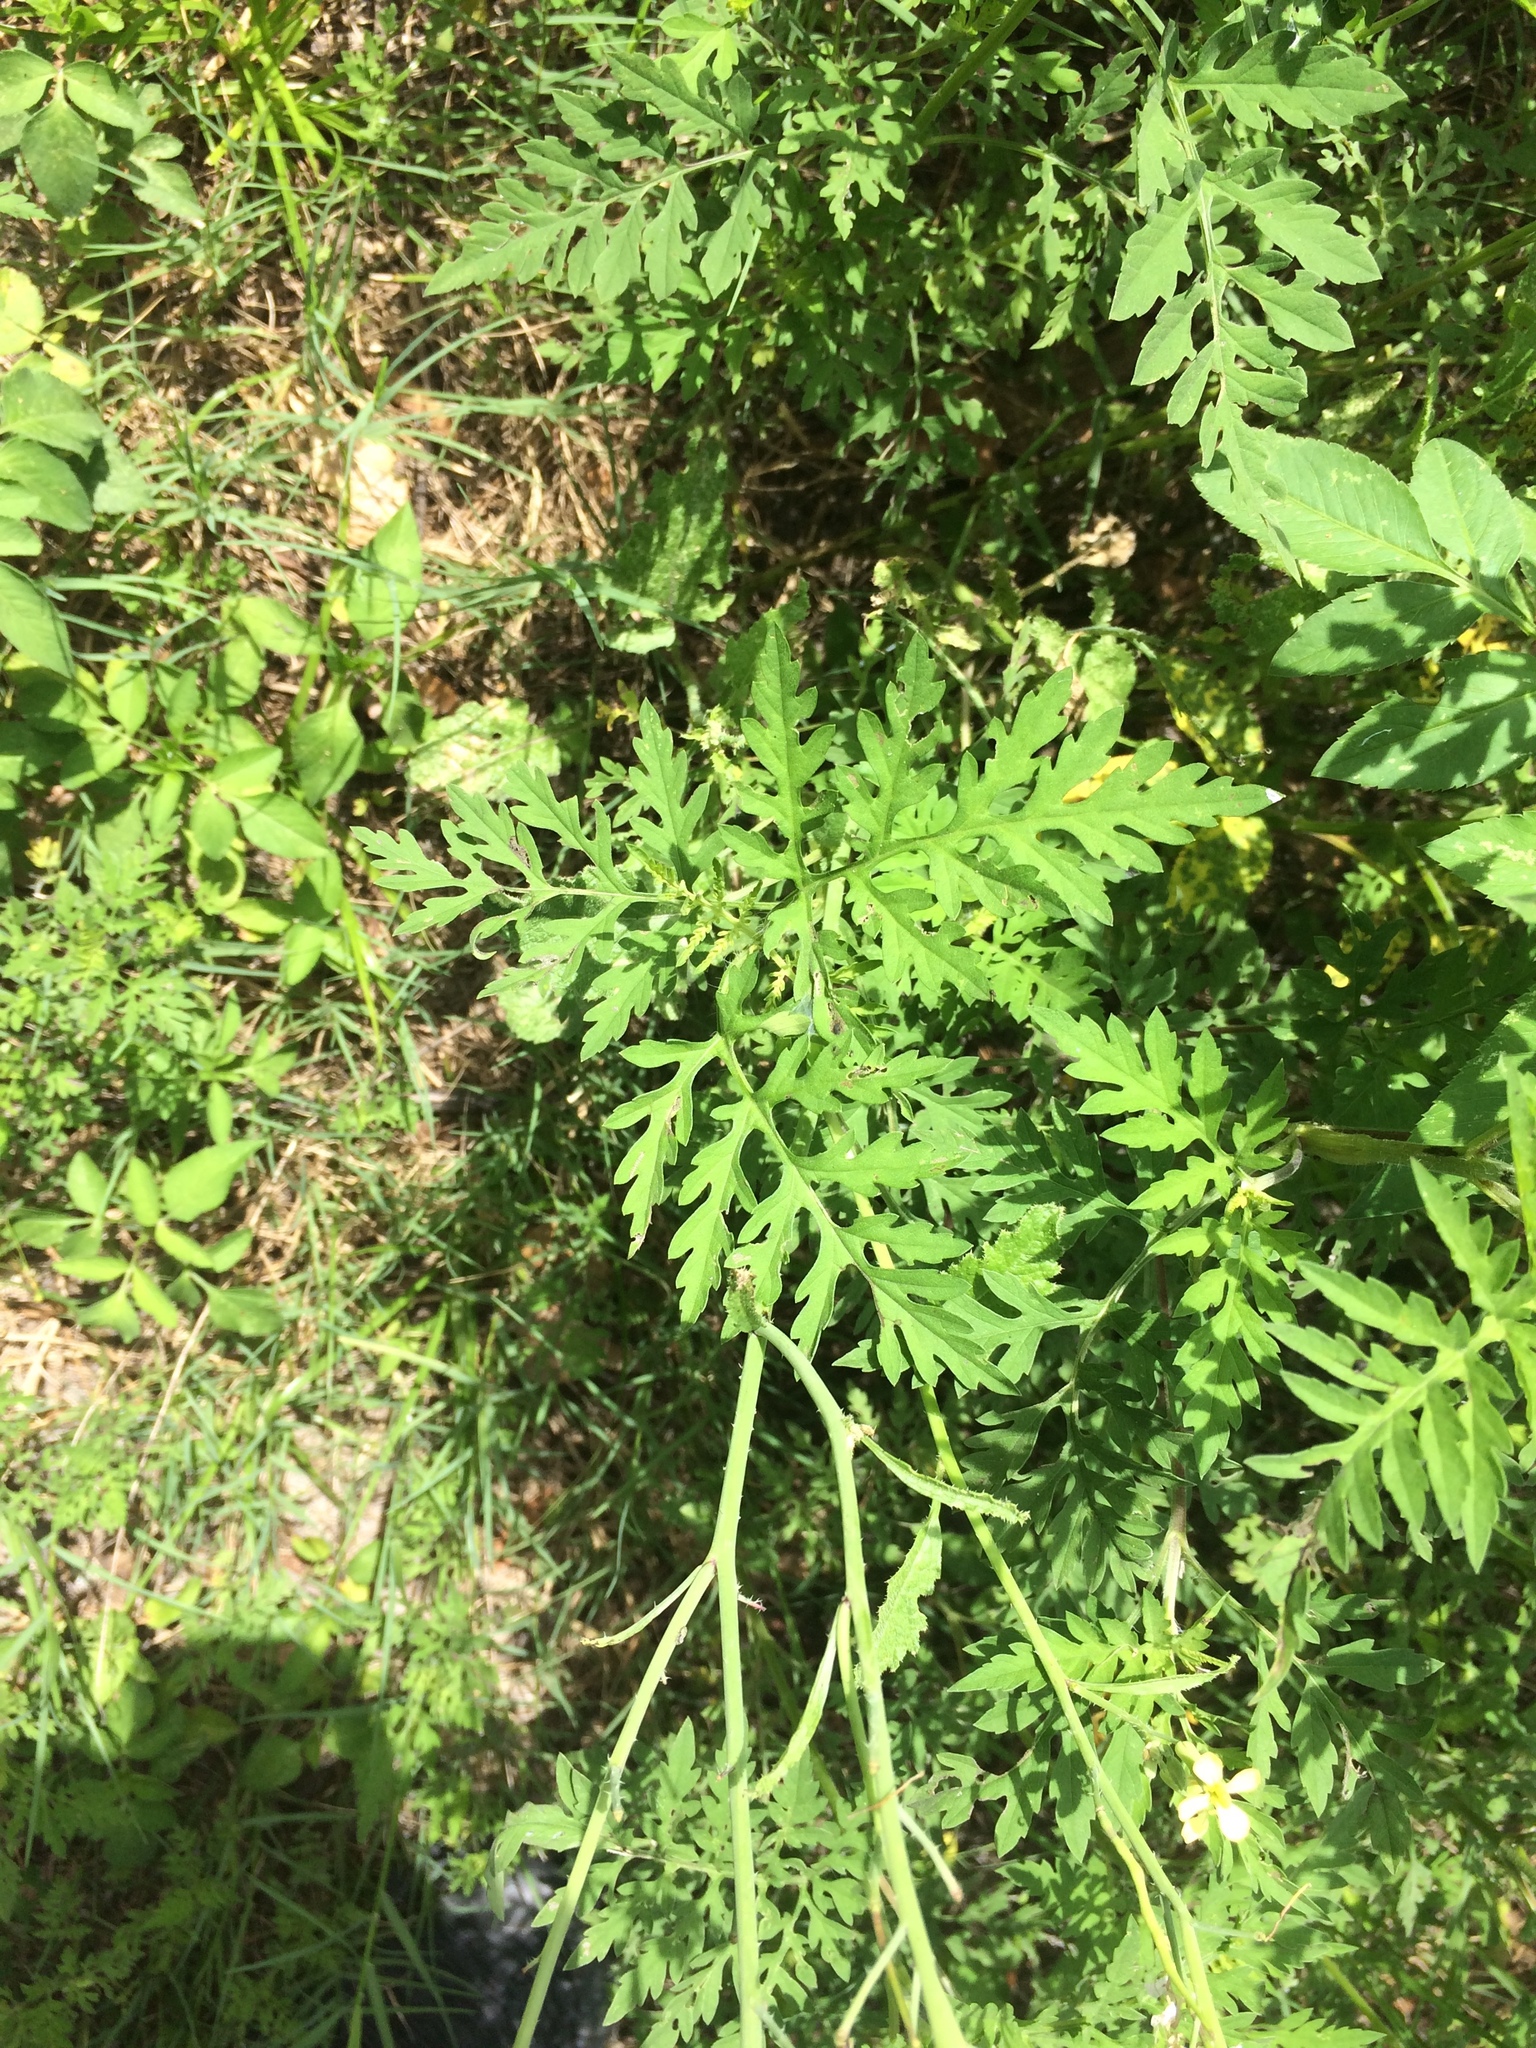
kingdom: Plantae
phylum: Tracheophyta
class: Magnoliopsida
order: Brassicales
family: Brassicaceae
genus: Raphanus
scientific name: Raphanus raphanistrum
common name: Wild radish
